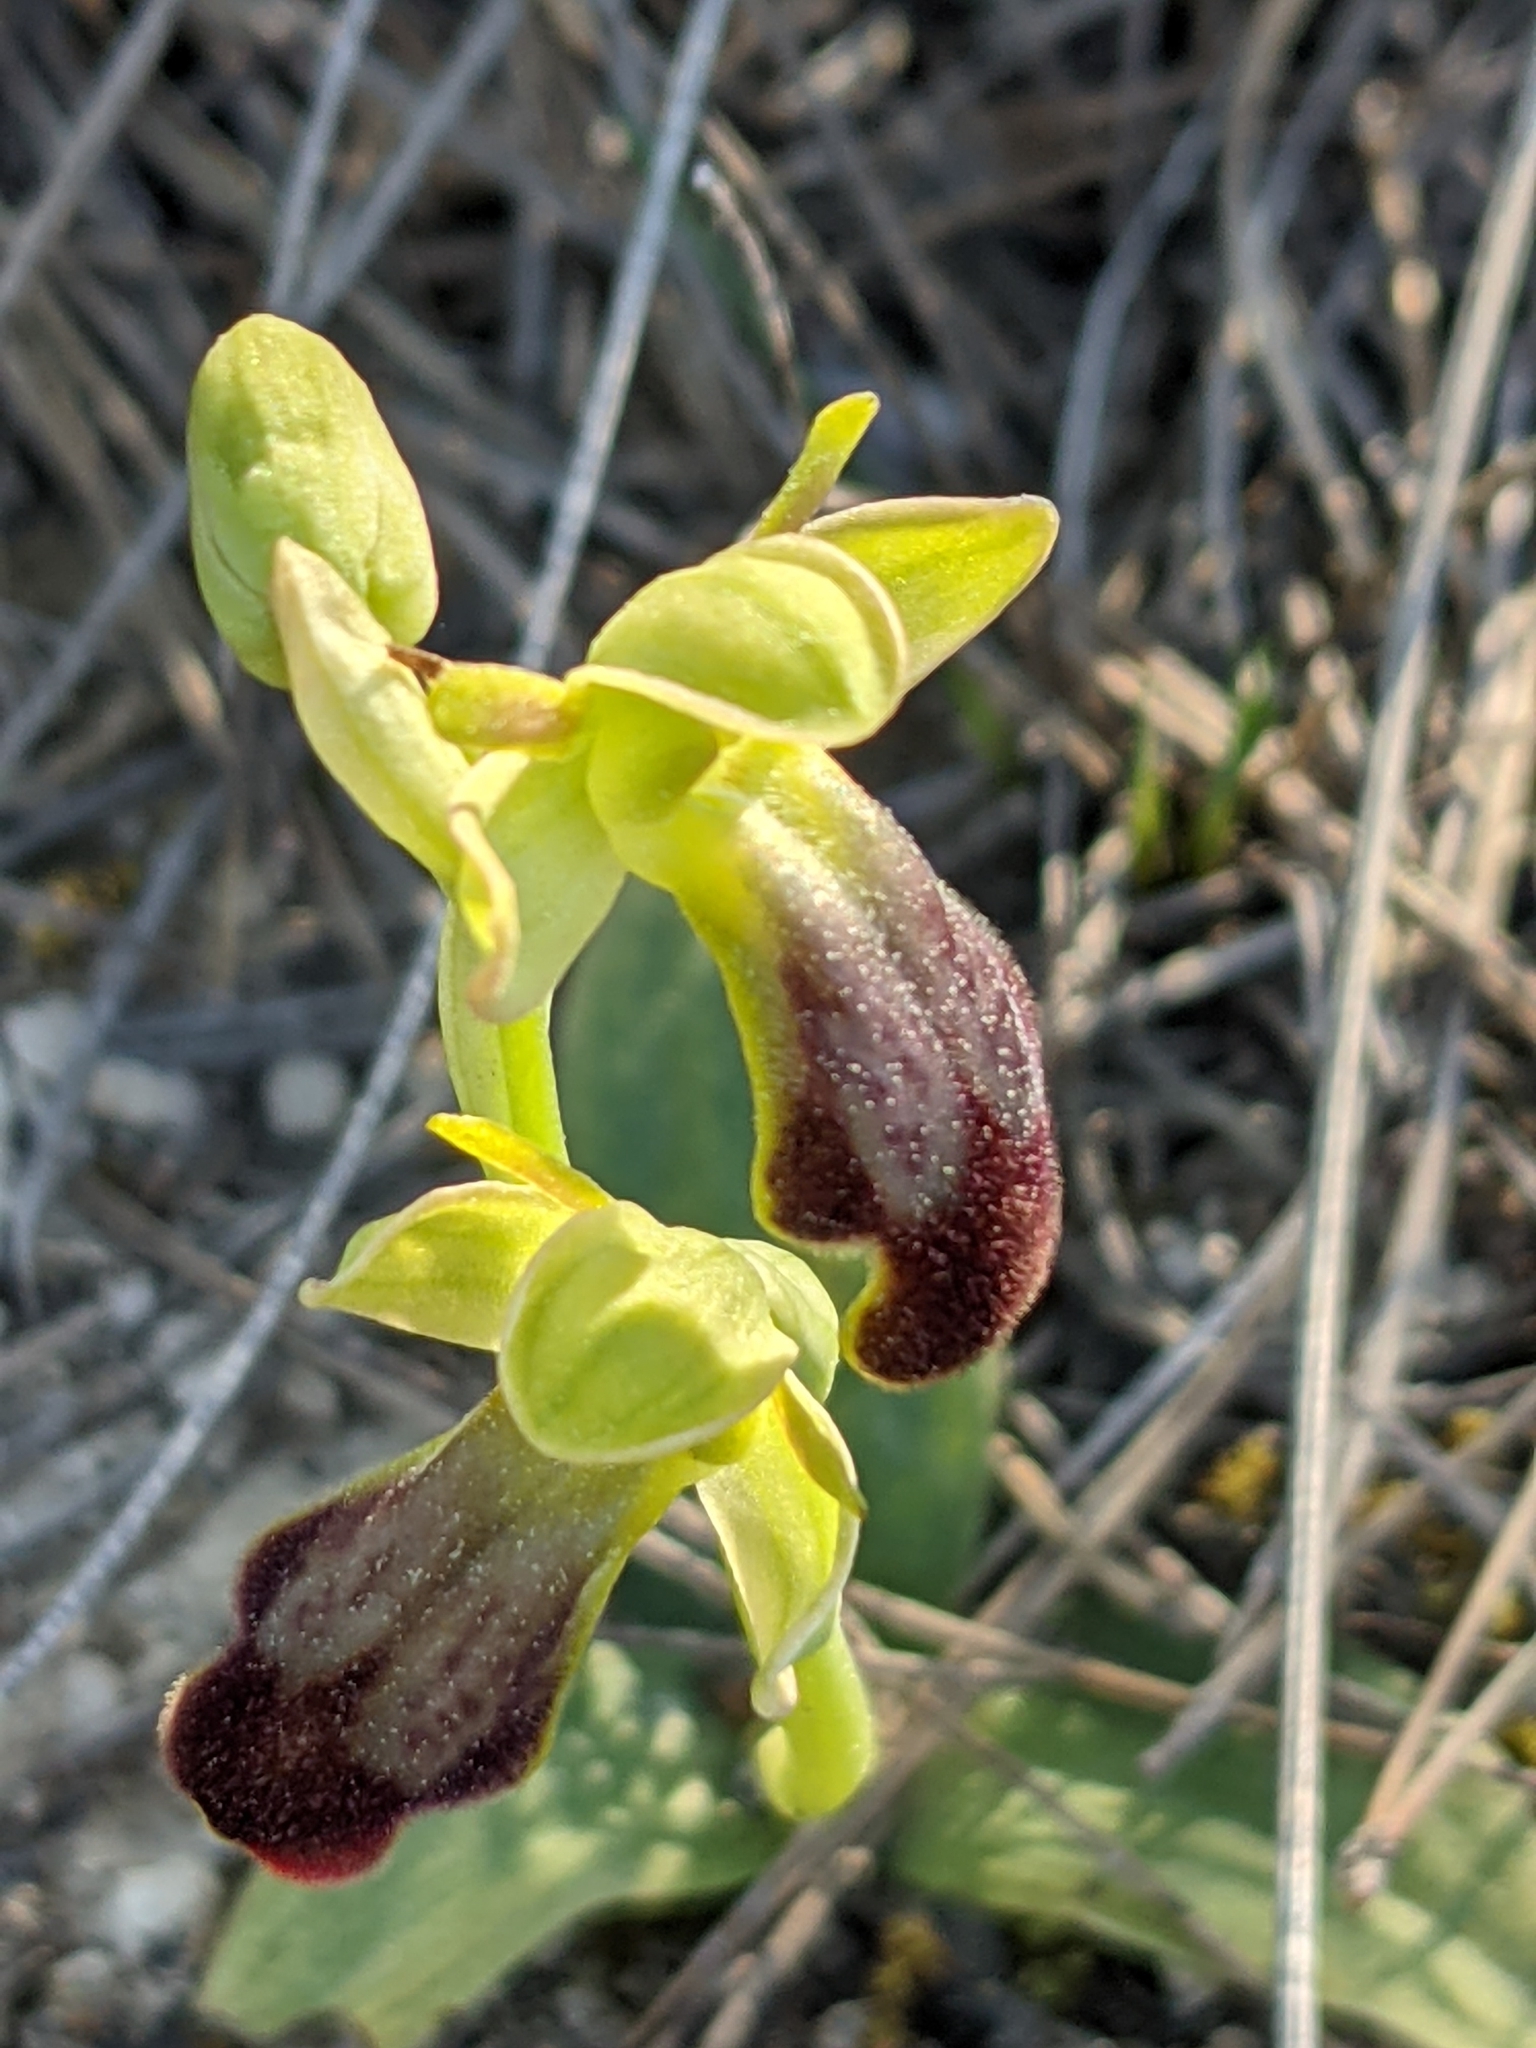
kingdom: Plantae
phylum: Tracheophyta
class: Liliopsida
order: Asparagales
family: Orchidaceae
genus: Ophrys
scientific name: Ophrys fusca
